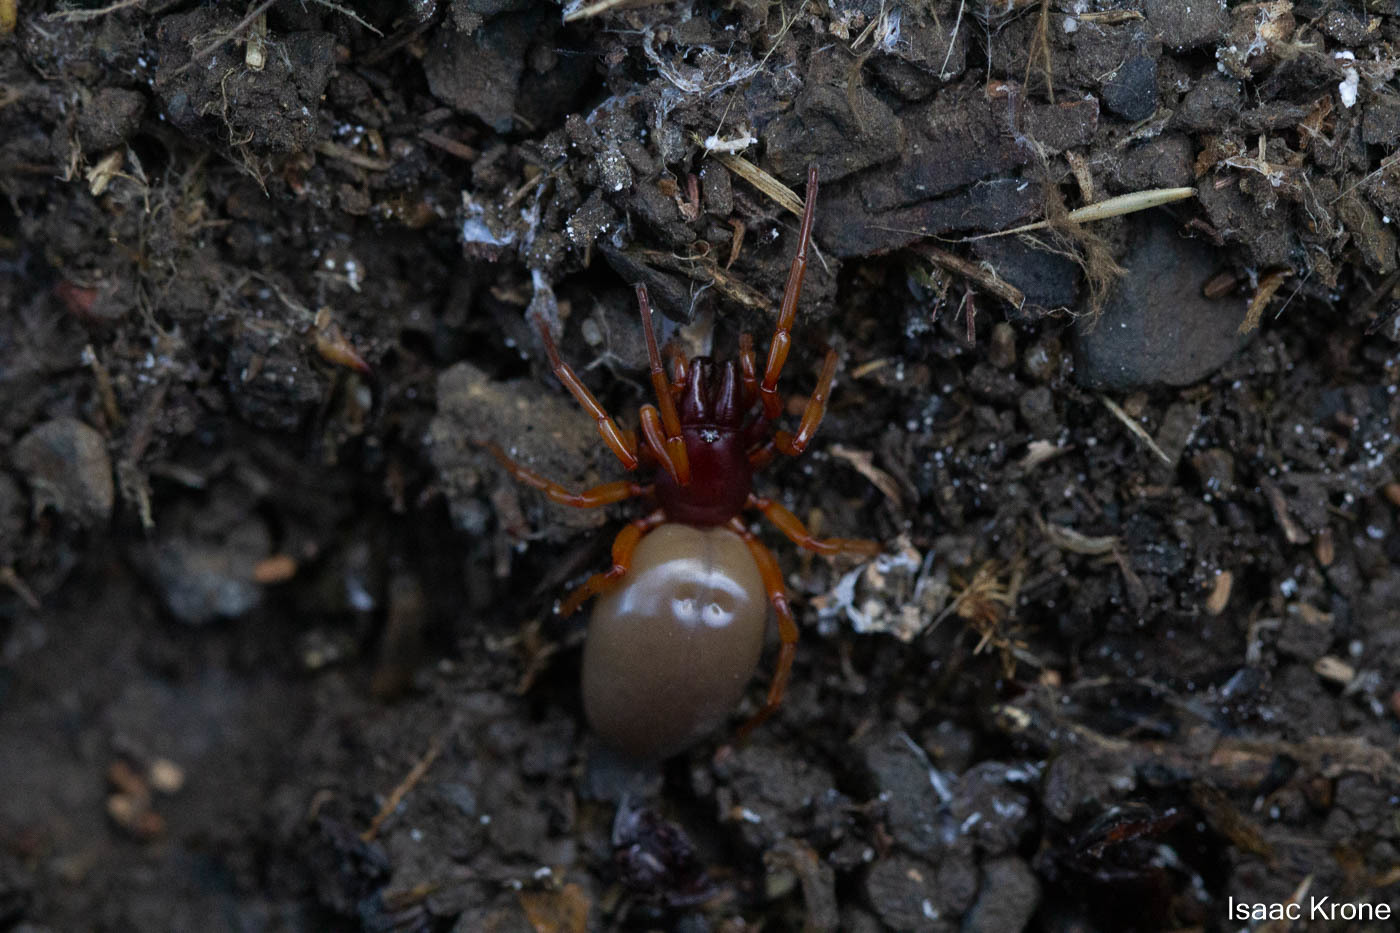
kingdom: Animalia
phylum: Arthropoda
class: Arachnida
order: Araneae
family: Dysderidae
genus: Dysdera
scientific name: Dysdera crocata
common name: Woodlouse spider
